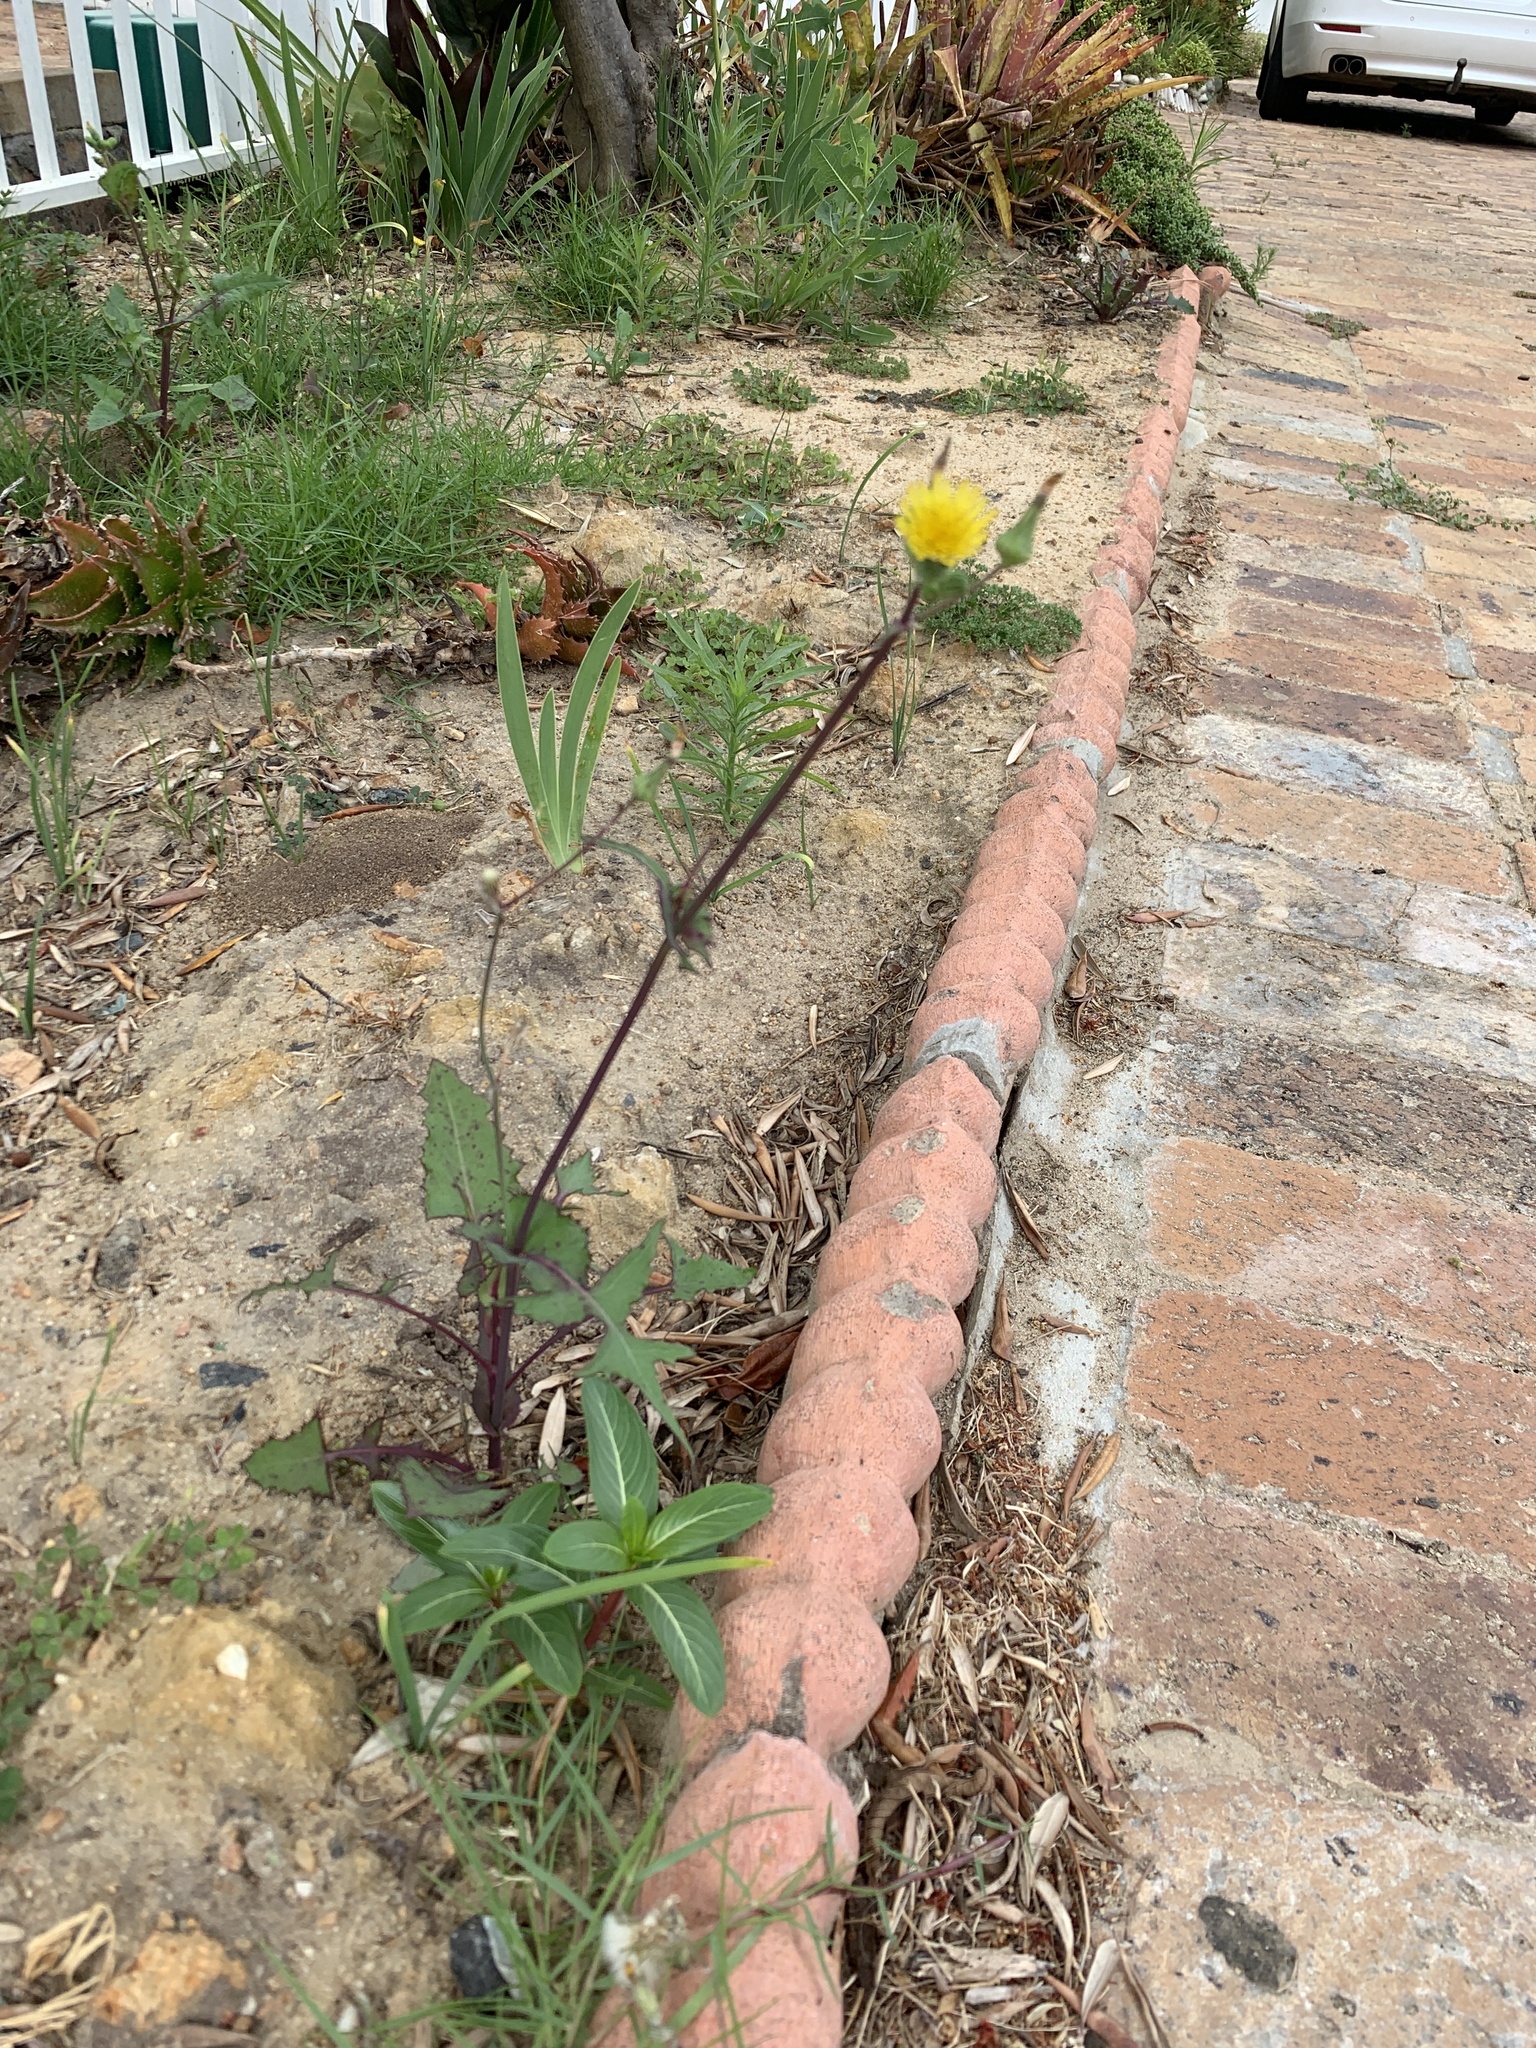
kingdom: Plantae
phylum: Tracheophyta
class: Magnoliopsida
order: Asterales
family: Asteraceae
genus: Sonchus
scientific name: Sonchus oleraceus
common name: Common sowthistle
